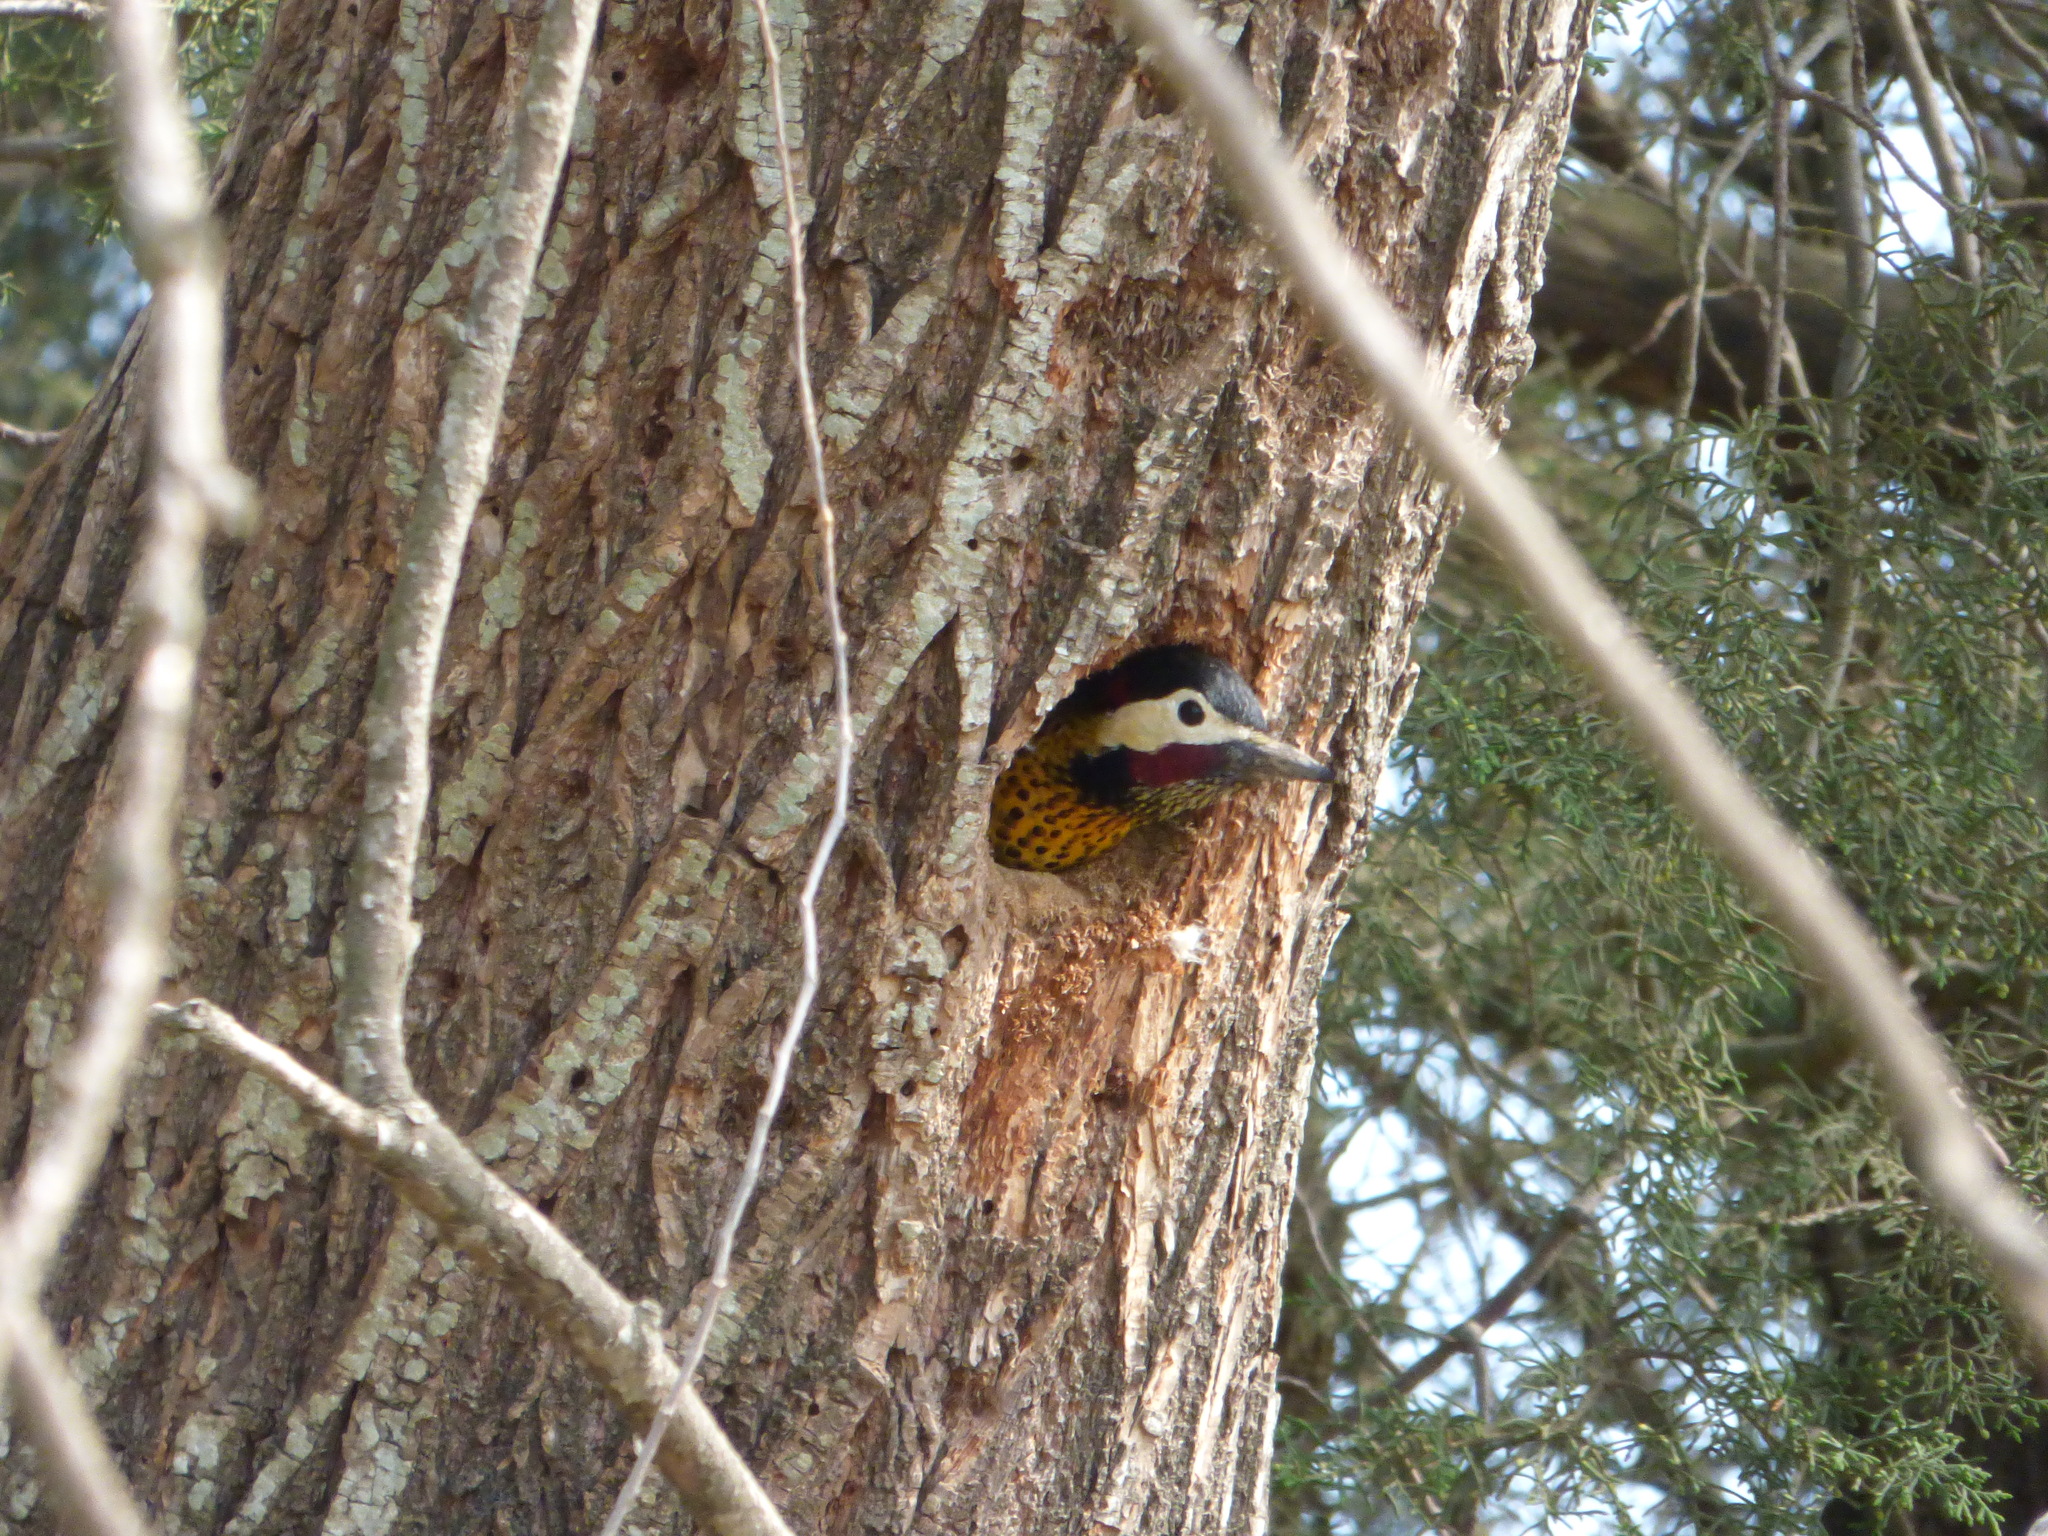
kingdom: Animalia
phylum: Chordata
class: Aves
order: Piciformes
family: Picidae
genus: Colaptes
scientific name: Colaptes melanochloros
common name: Green-barred woodpecker
